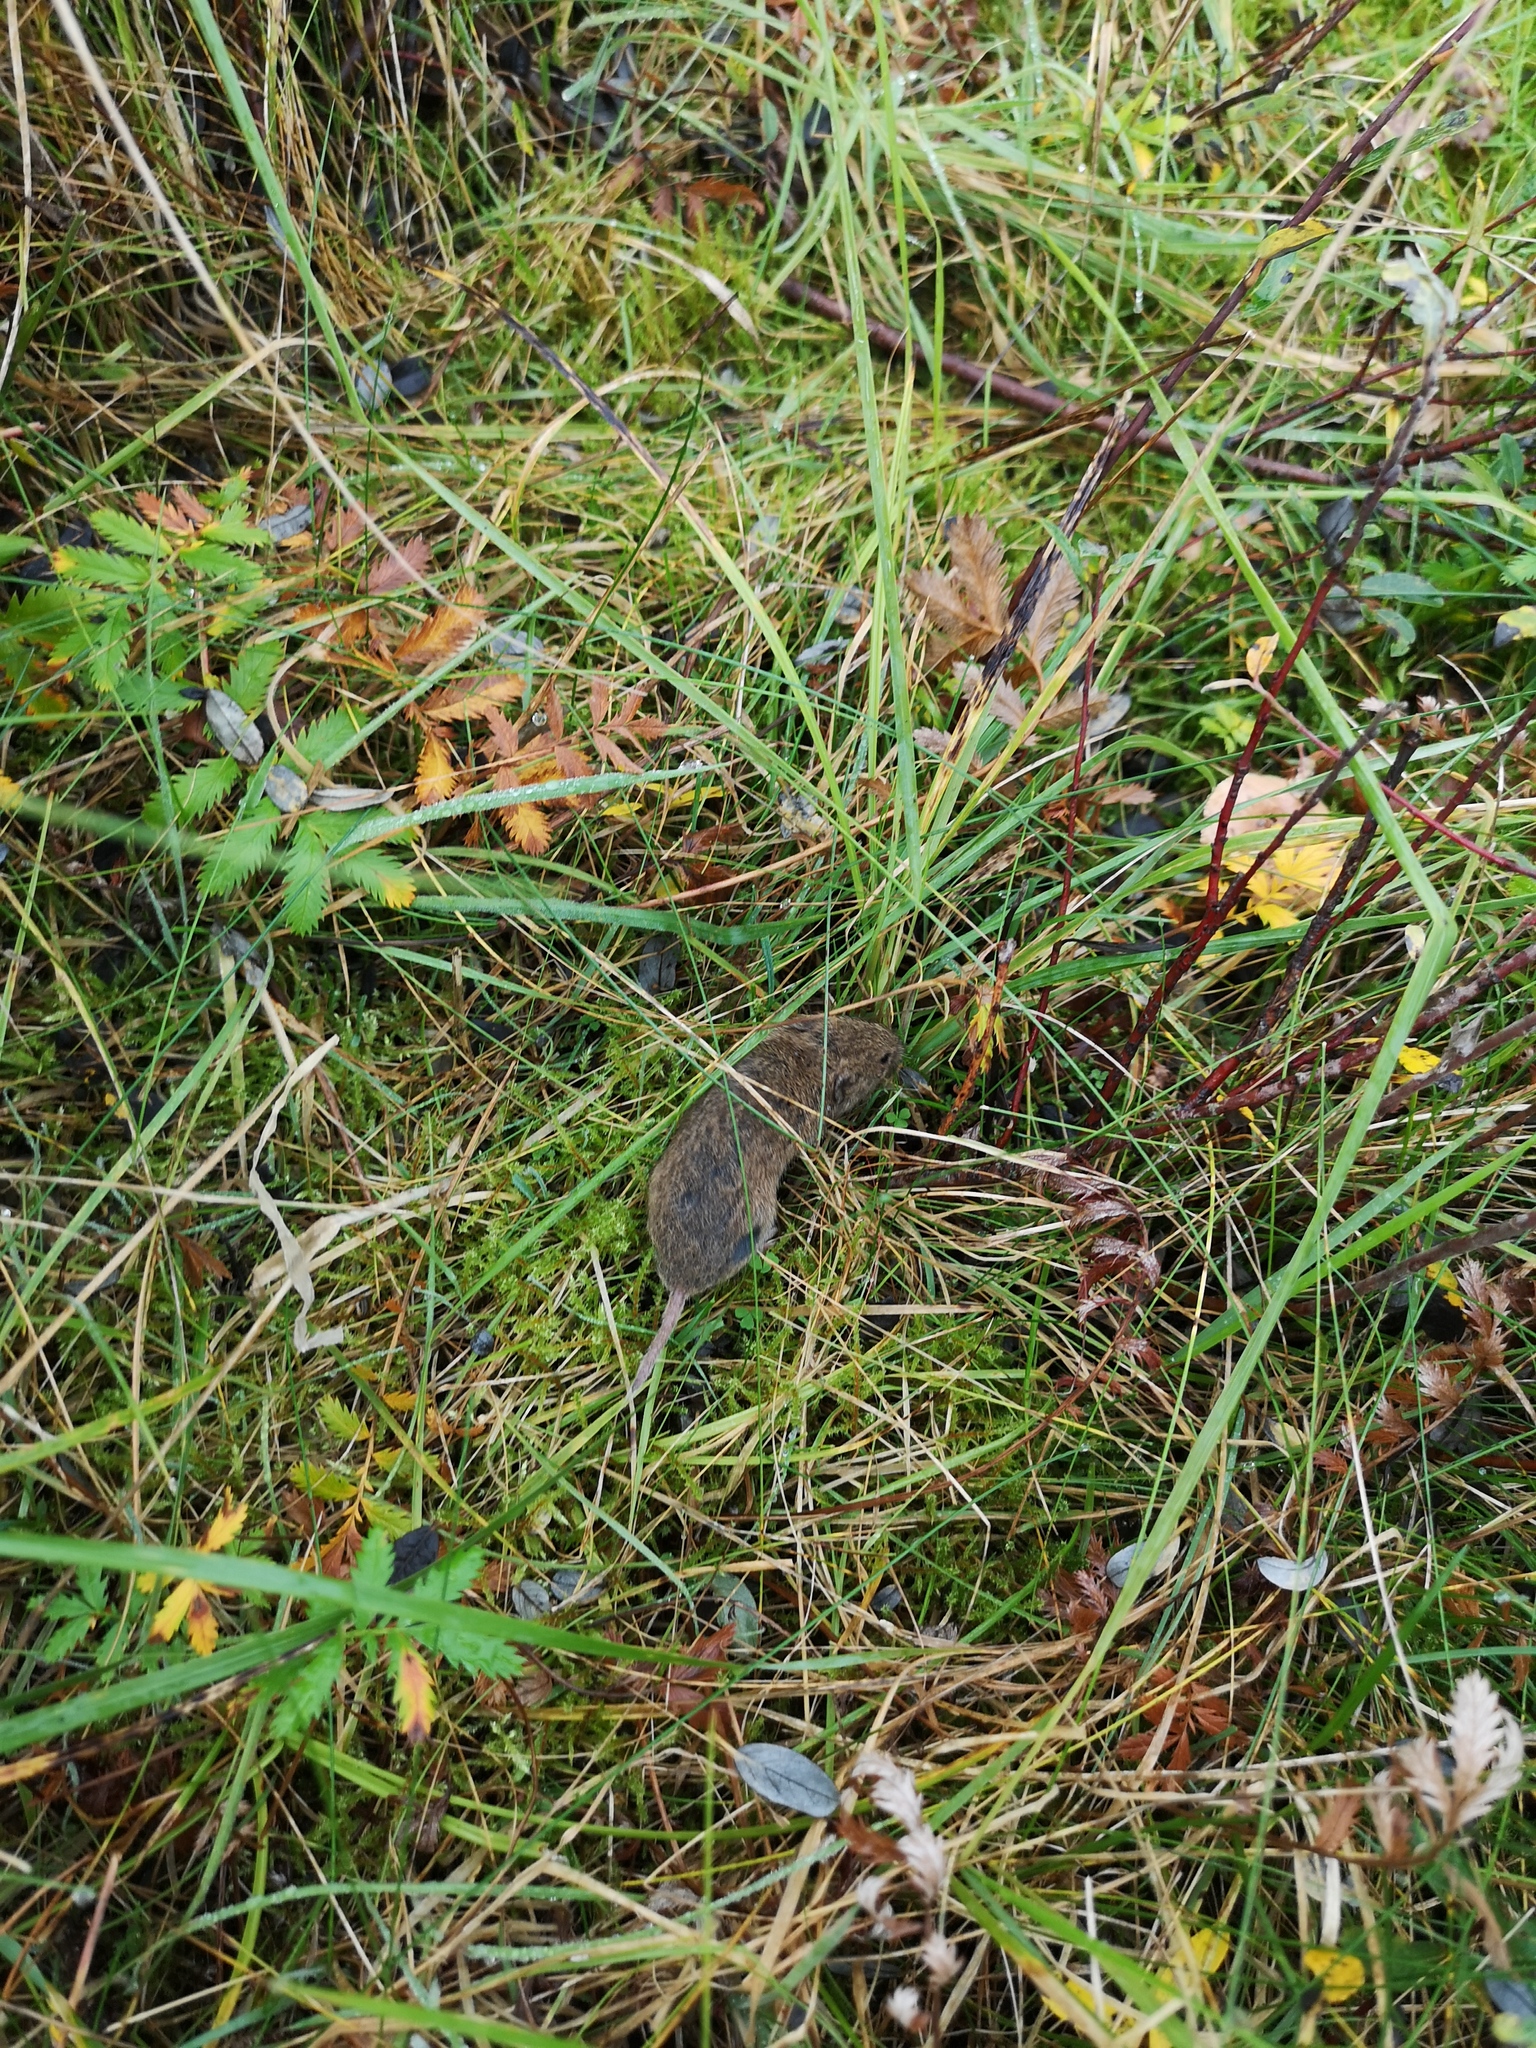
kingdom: Animalia
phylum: Chordata
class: Mammalia
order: Rodentia
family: Cricetidae
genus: Microtus
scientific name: Microtus arvalis
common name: Common vole
